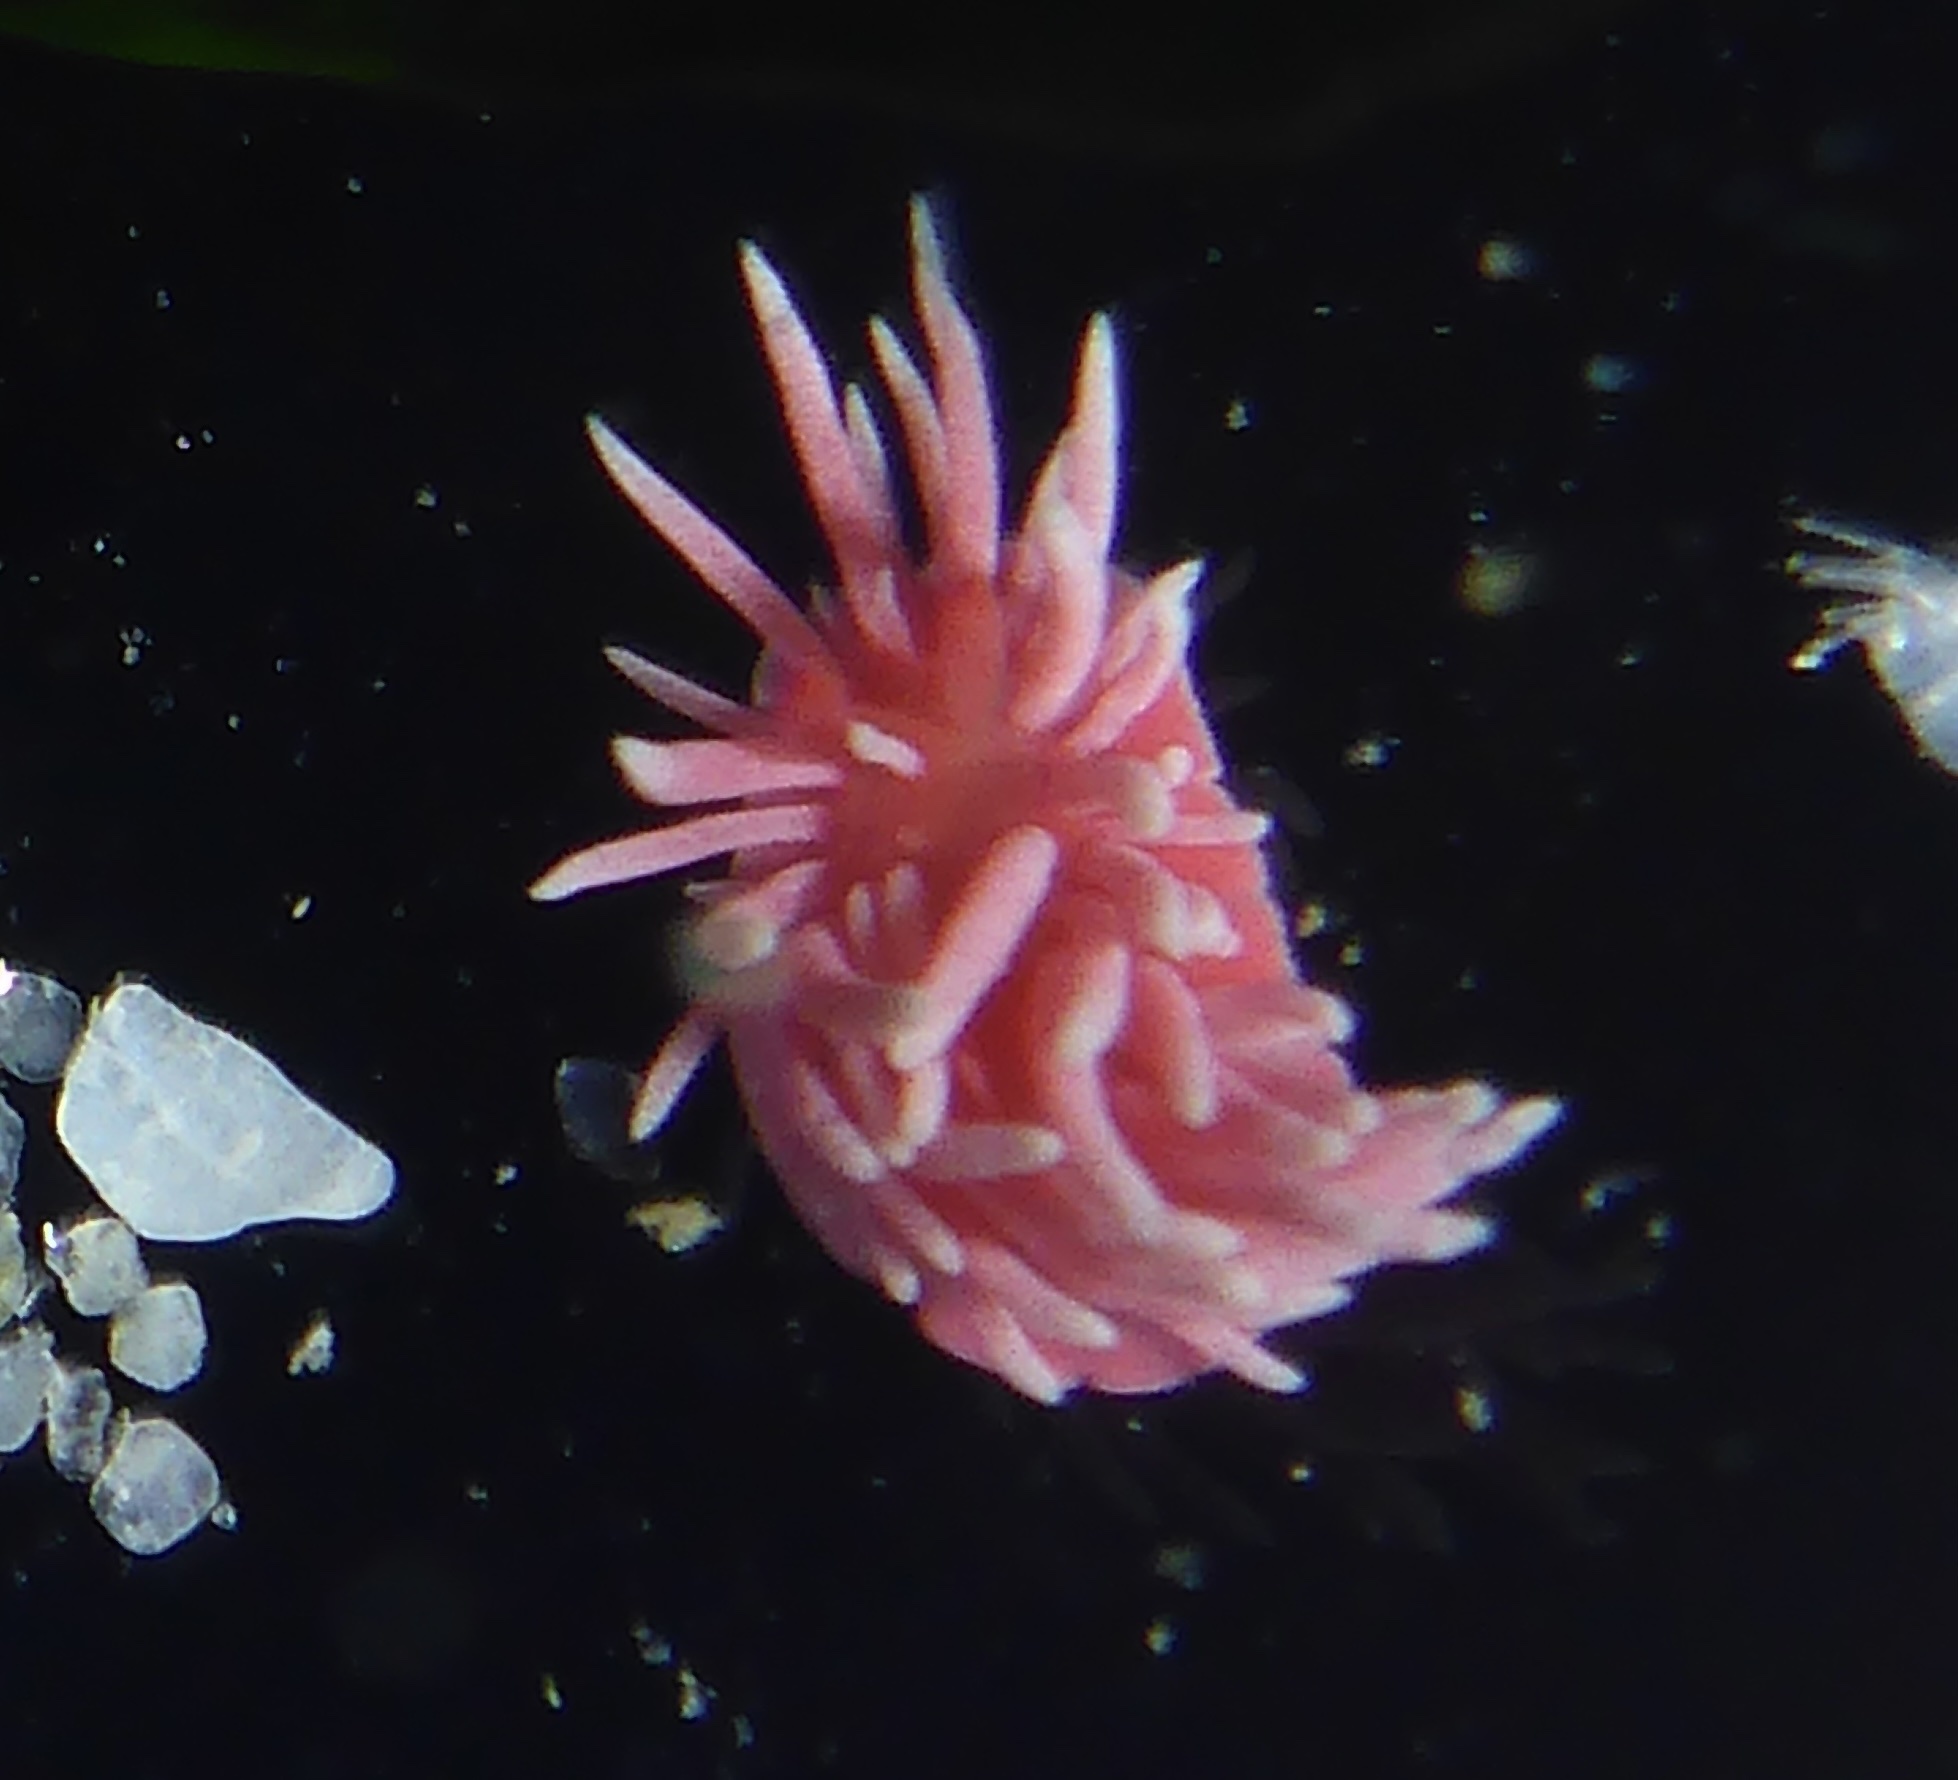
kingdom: Animalia
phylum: Mollusca
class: Gastropoda
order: Nudibranchia
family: Goniodorididae
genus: Okenia
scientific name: Okenia
